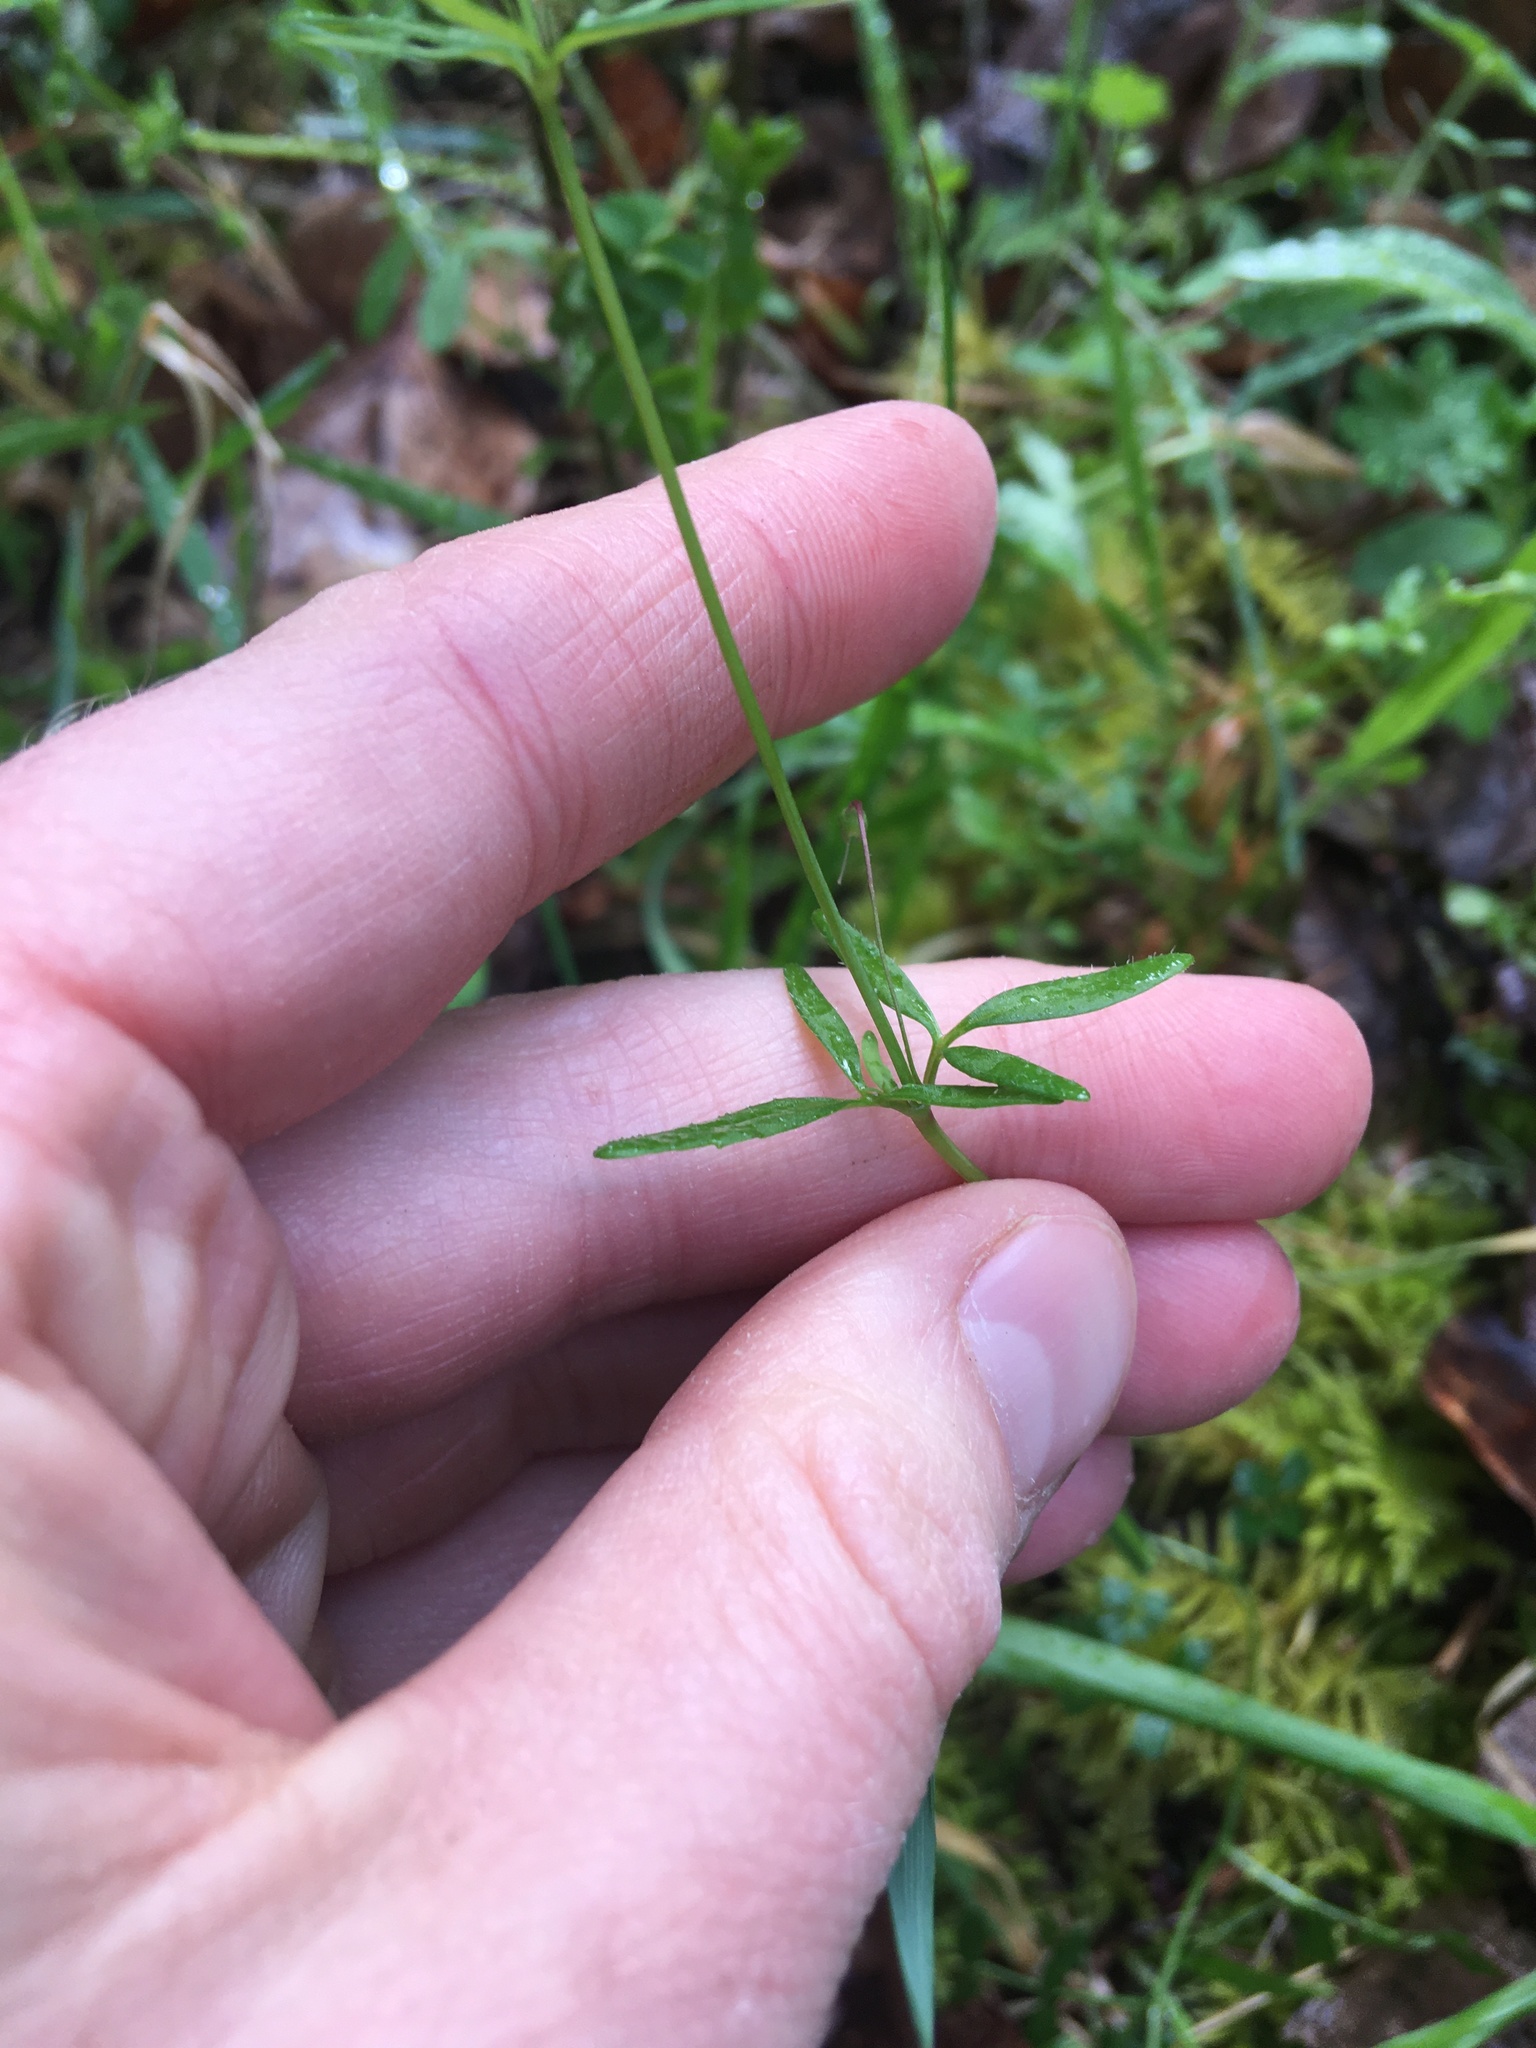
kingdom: Plantae
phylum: Tracheophyta
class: Magnoliopsida
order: Lamiales
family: Plantaginaceae
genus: Tonella
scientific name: Tonella tenella
